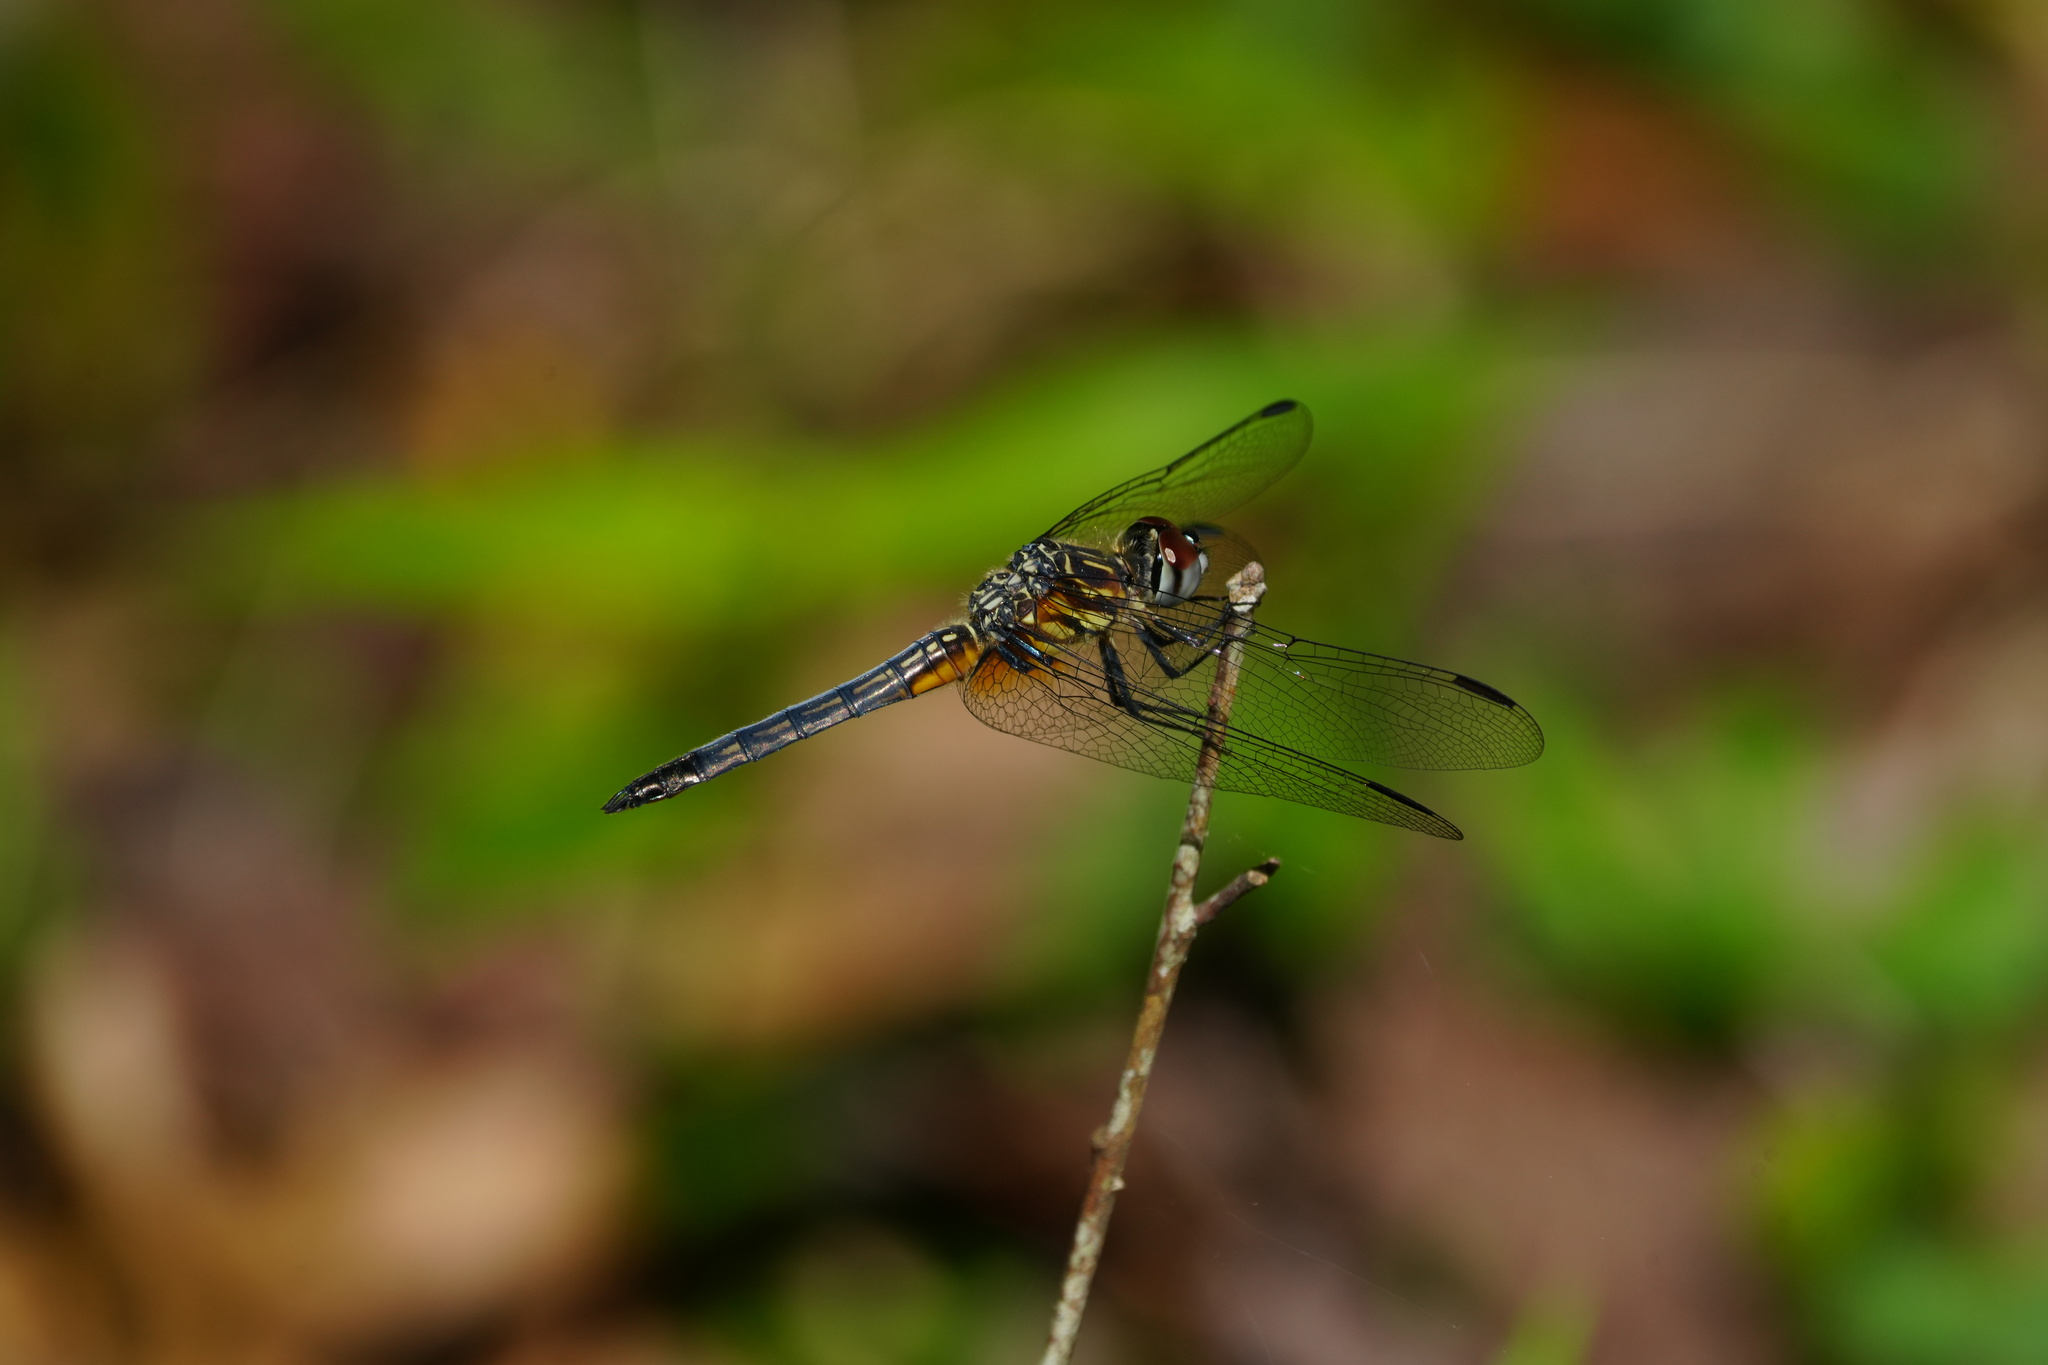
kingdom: Animalia
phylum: Arthropoda
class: Insecta
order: Odonata
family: Libellulidae
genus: Pachydiplax
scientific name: Pachydiplax longipennis
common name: Blue dasher
